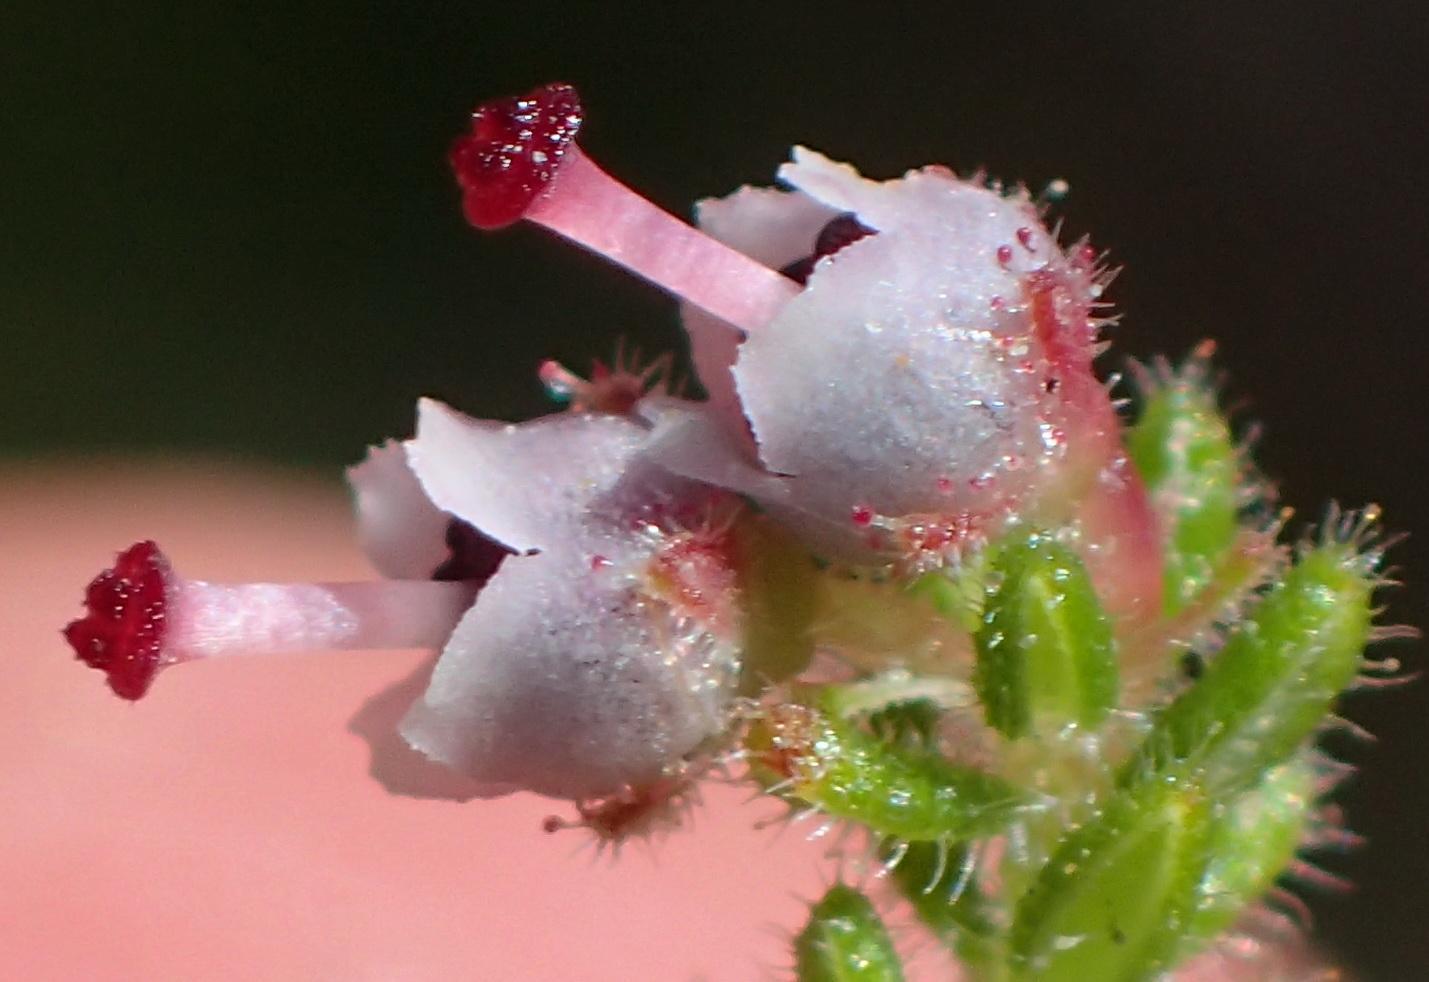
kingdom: Plantae
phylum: Tracheophyta
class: Magnoliopsida
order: Ericales
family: Ericaceae
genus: Erica
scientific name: Erica cordata
